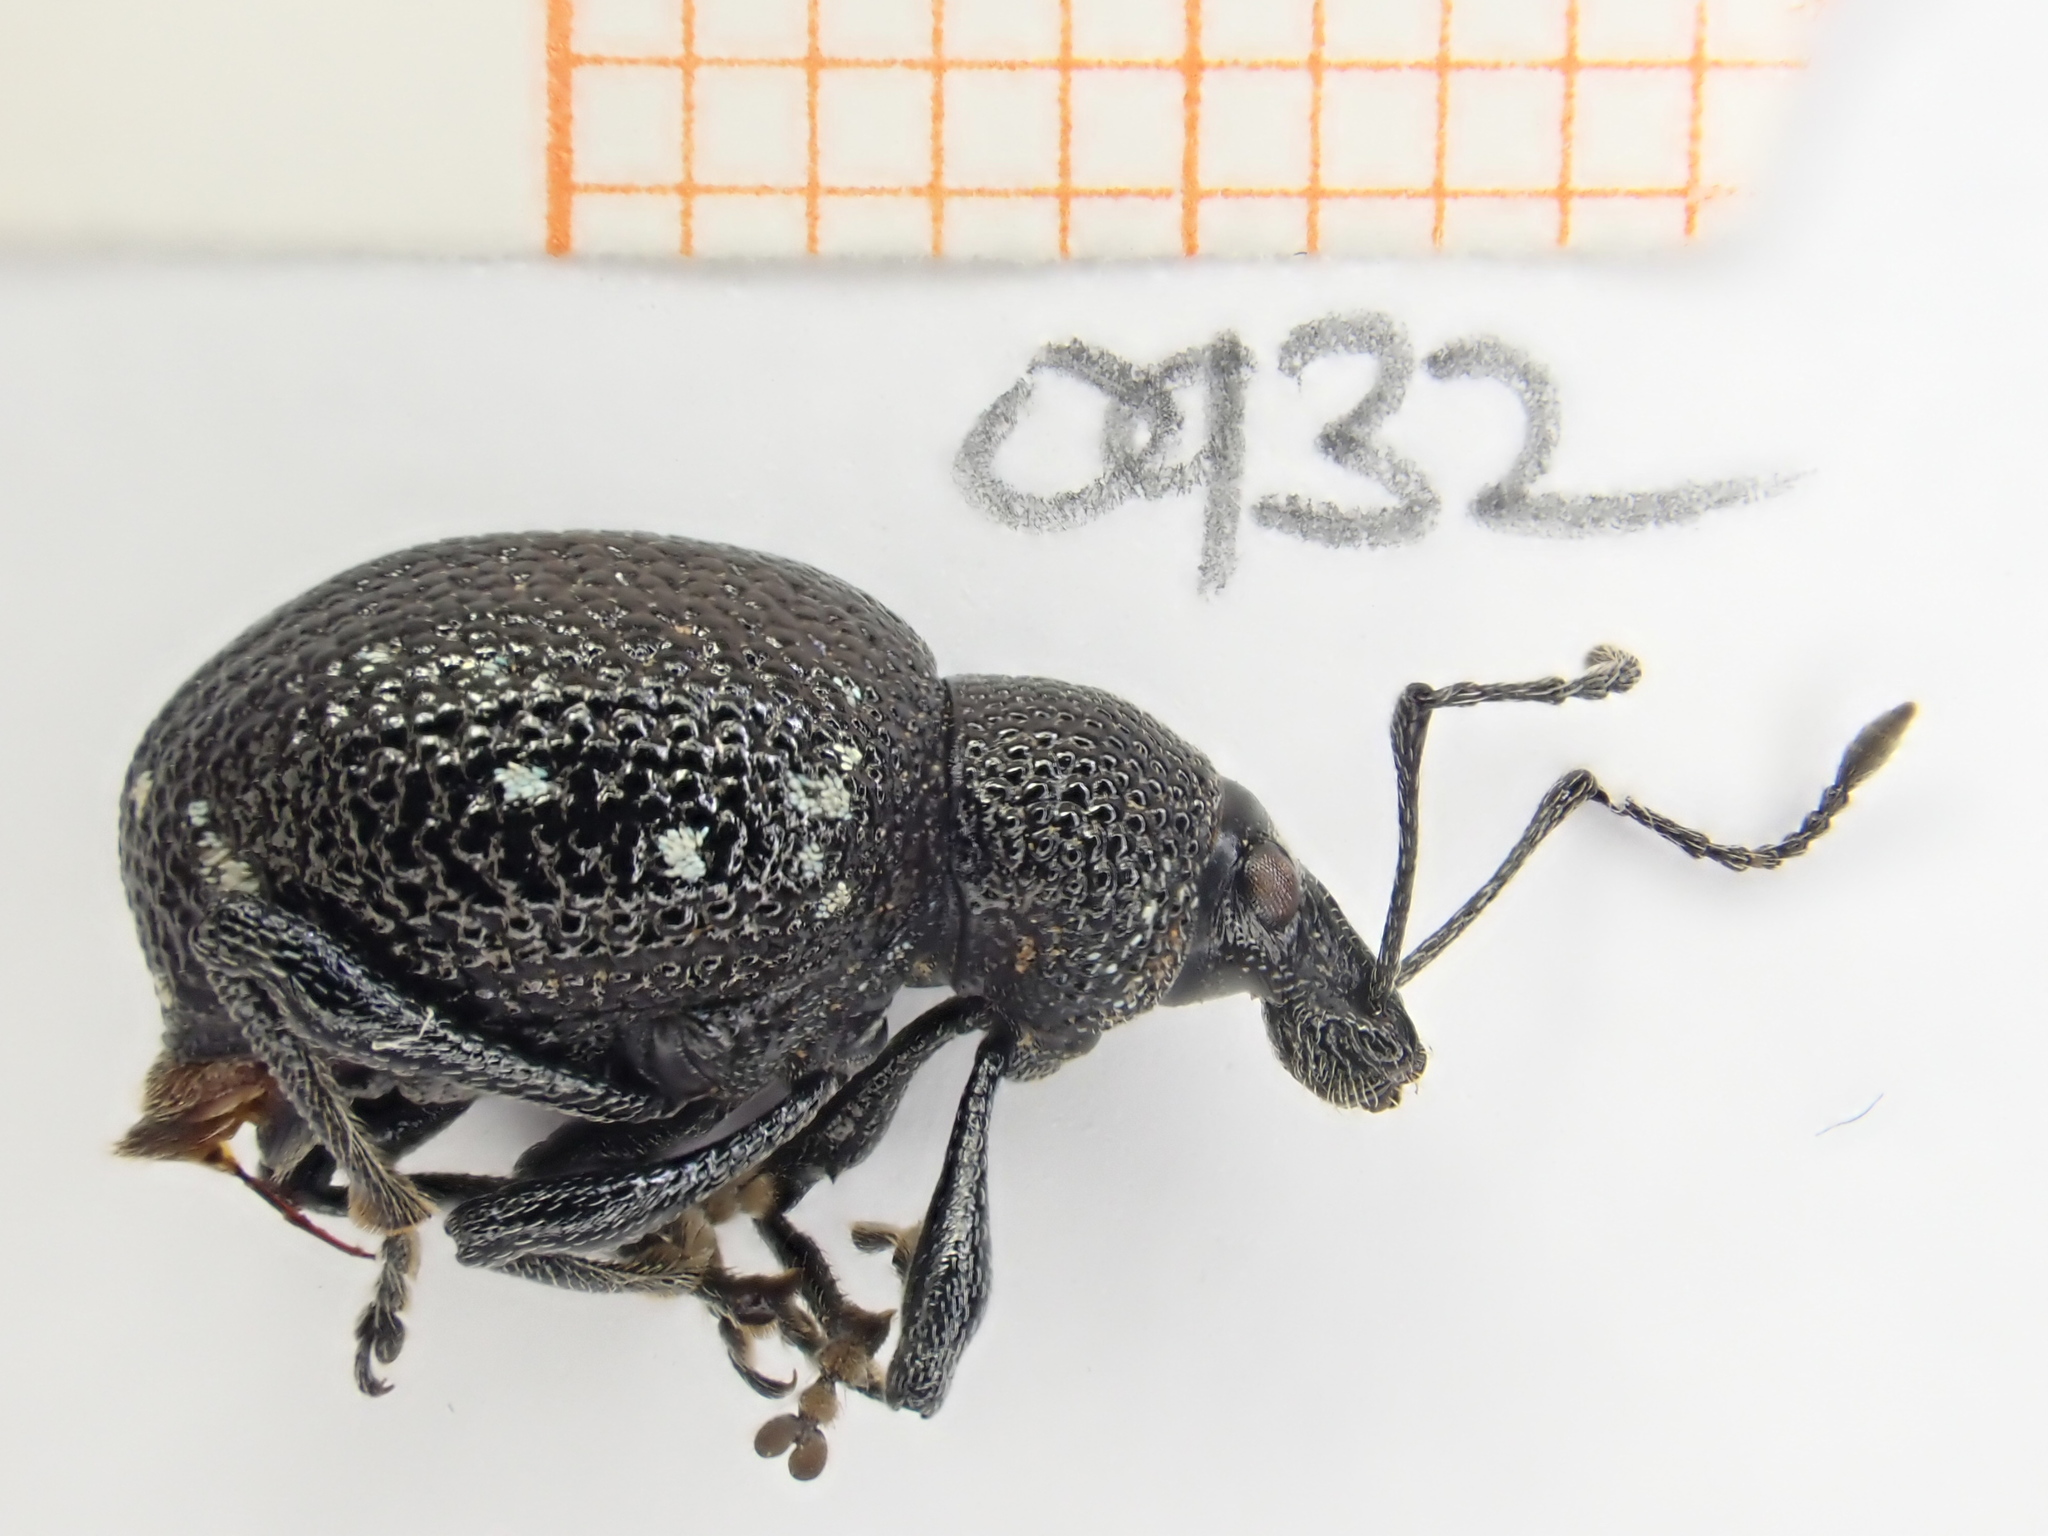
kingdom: Animalia
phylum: Arthropoda
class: Insecta
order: Coleoptera
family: Curculionidae
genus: Otiorhynchus
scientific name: Otiorhynchus gemmatus
